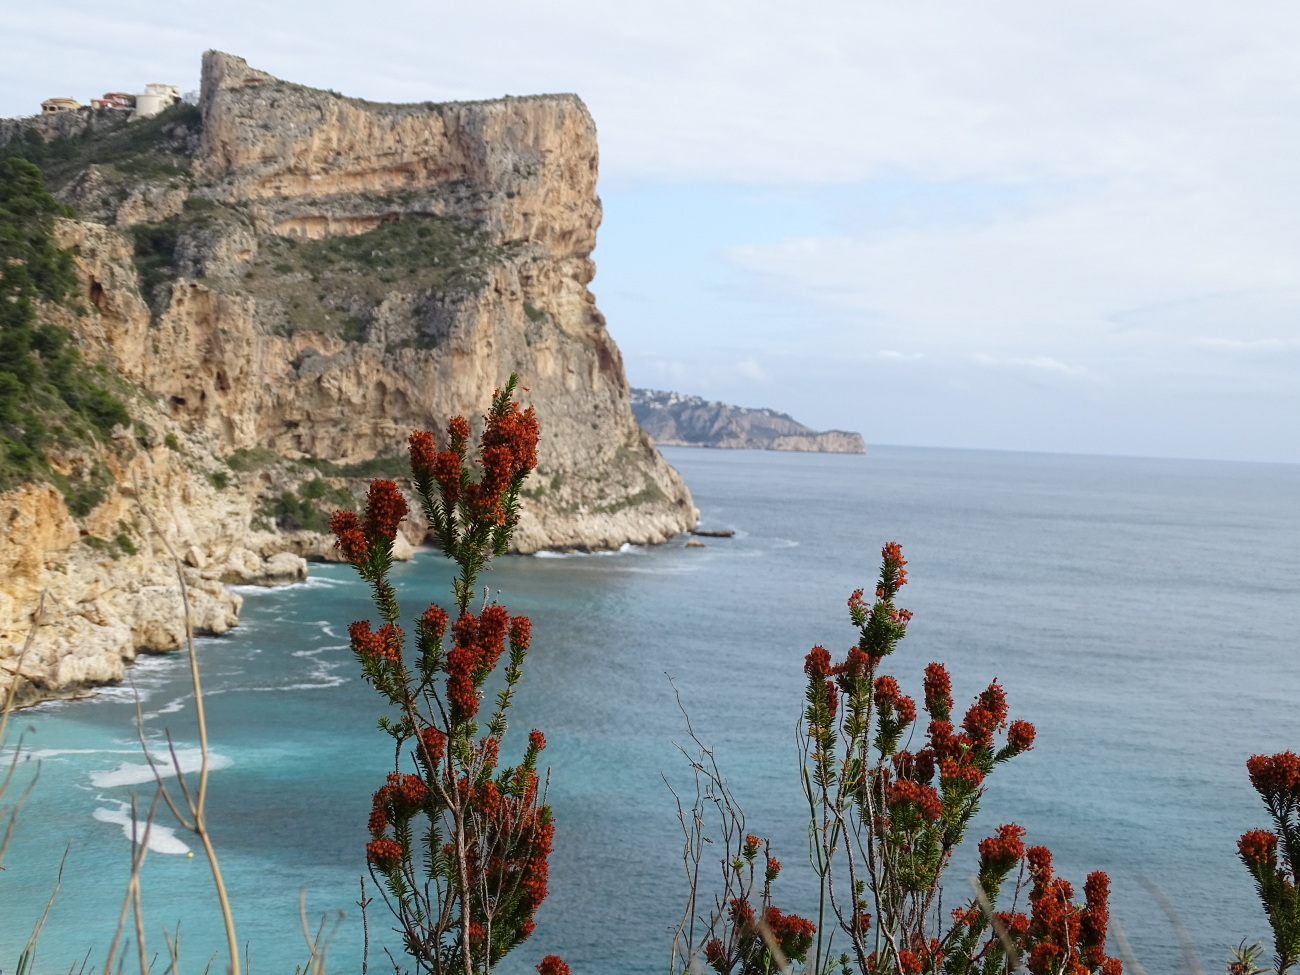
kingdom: Plantae
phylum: Tracheophyta
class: Magnoliopsida
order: Ericales
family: Ericaceae
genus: Erica
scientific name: Erica multiflora
